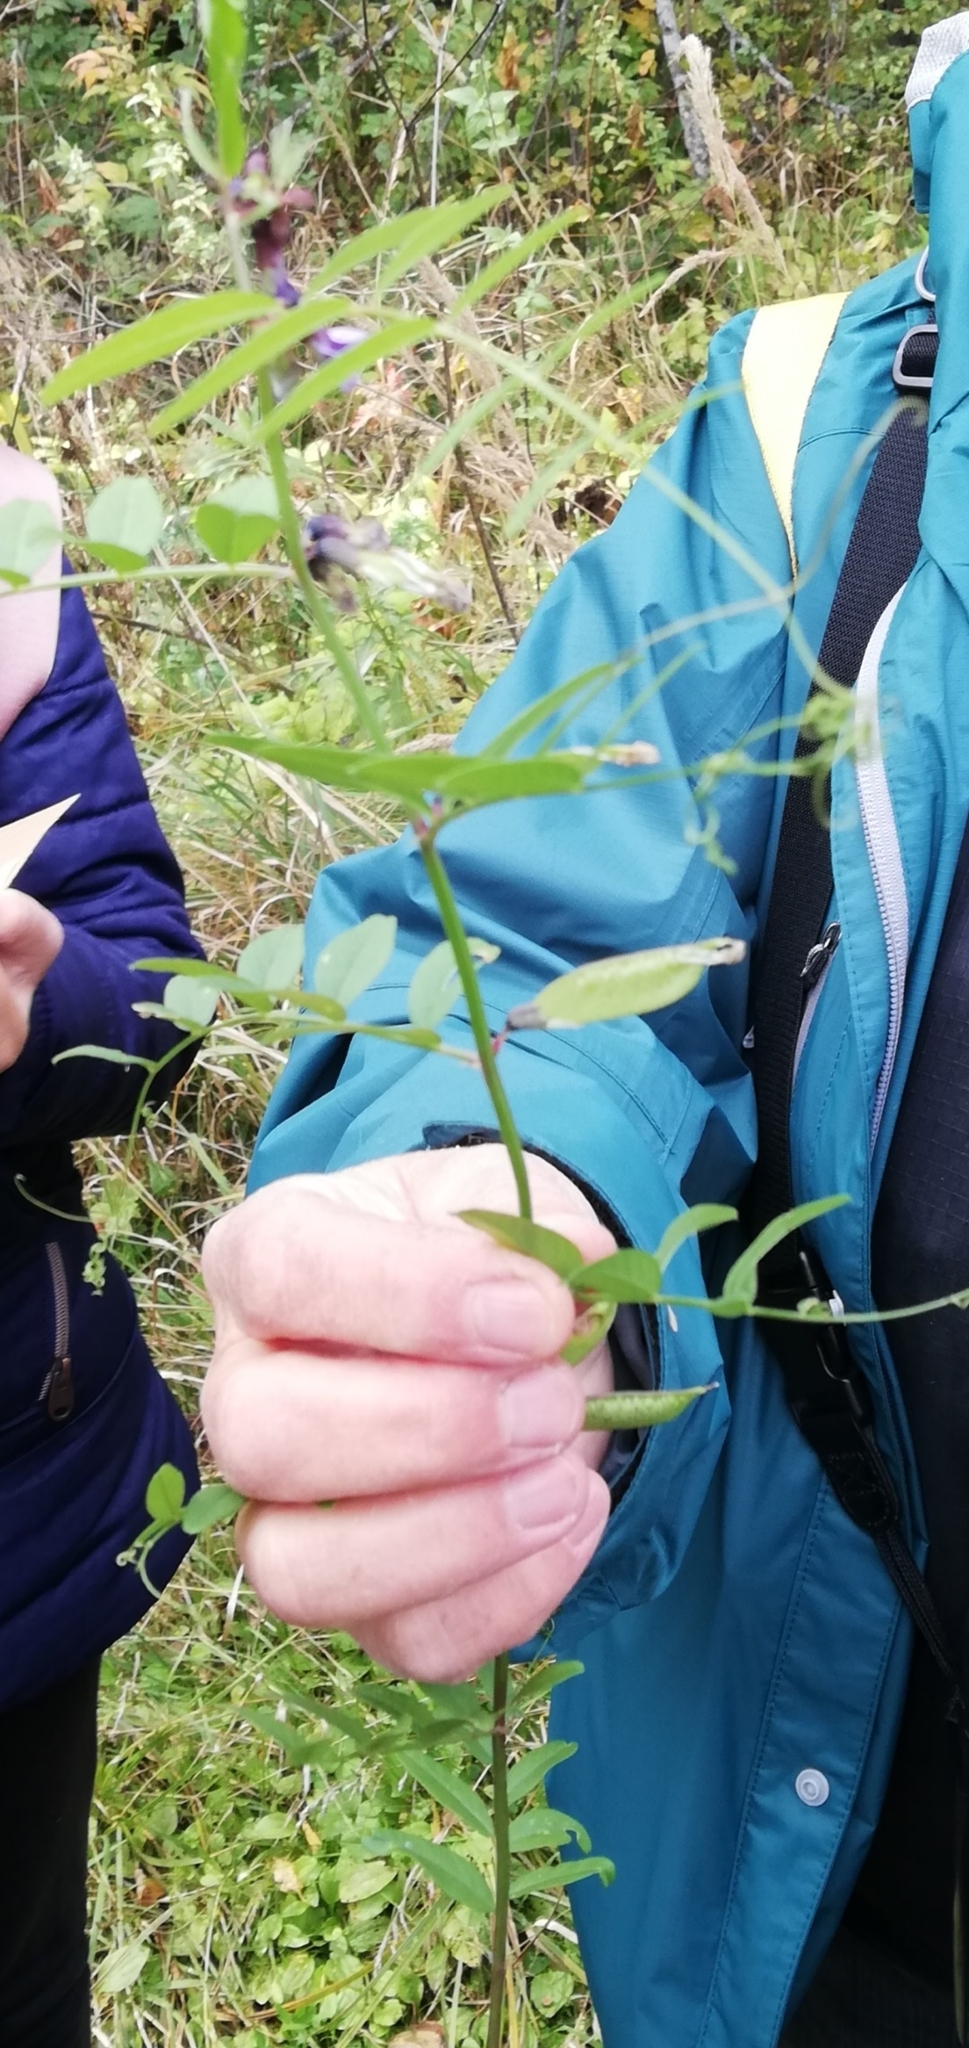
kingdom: Plantae
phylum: Tracheophyta
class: Magnoliopsida
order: Fabales
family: Fabaceae
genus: Vicia
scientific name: Vicia sepium
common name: Bush vetch
